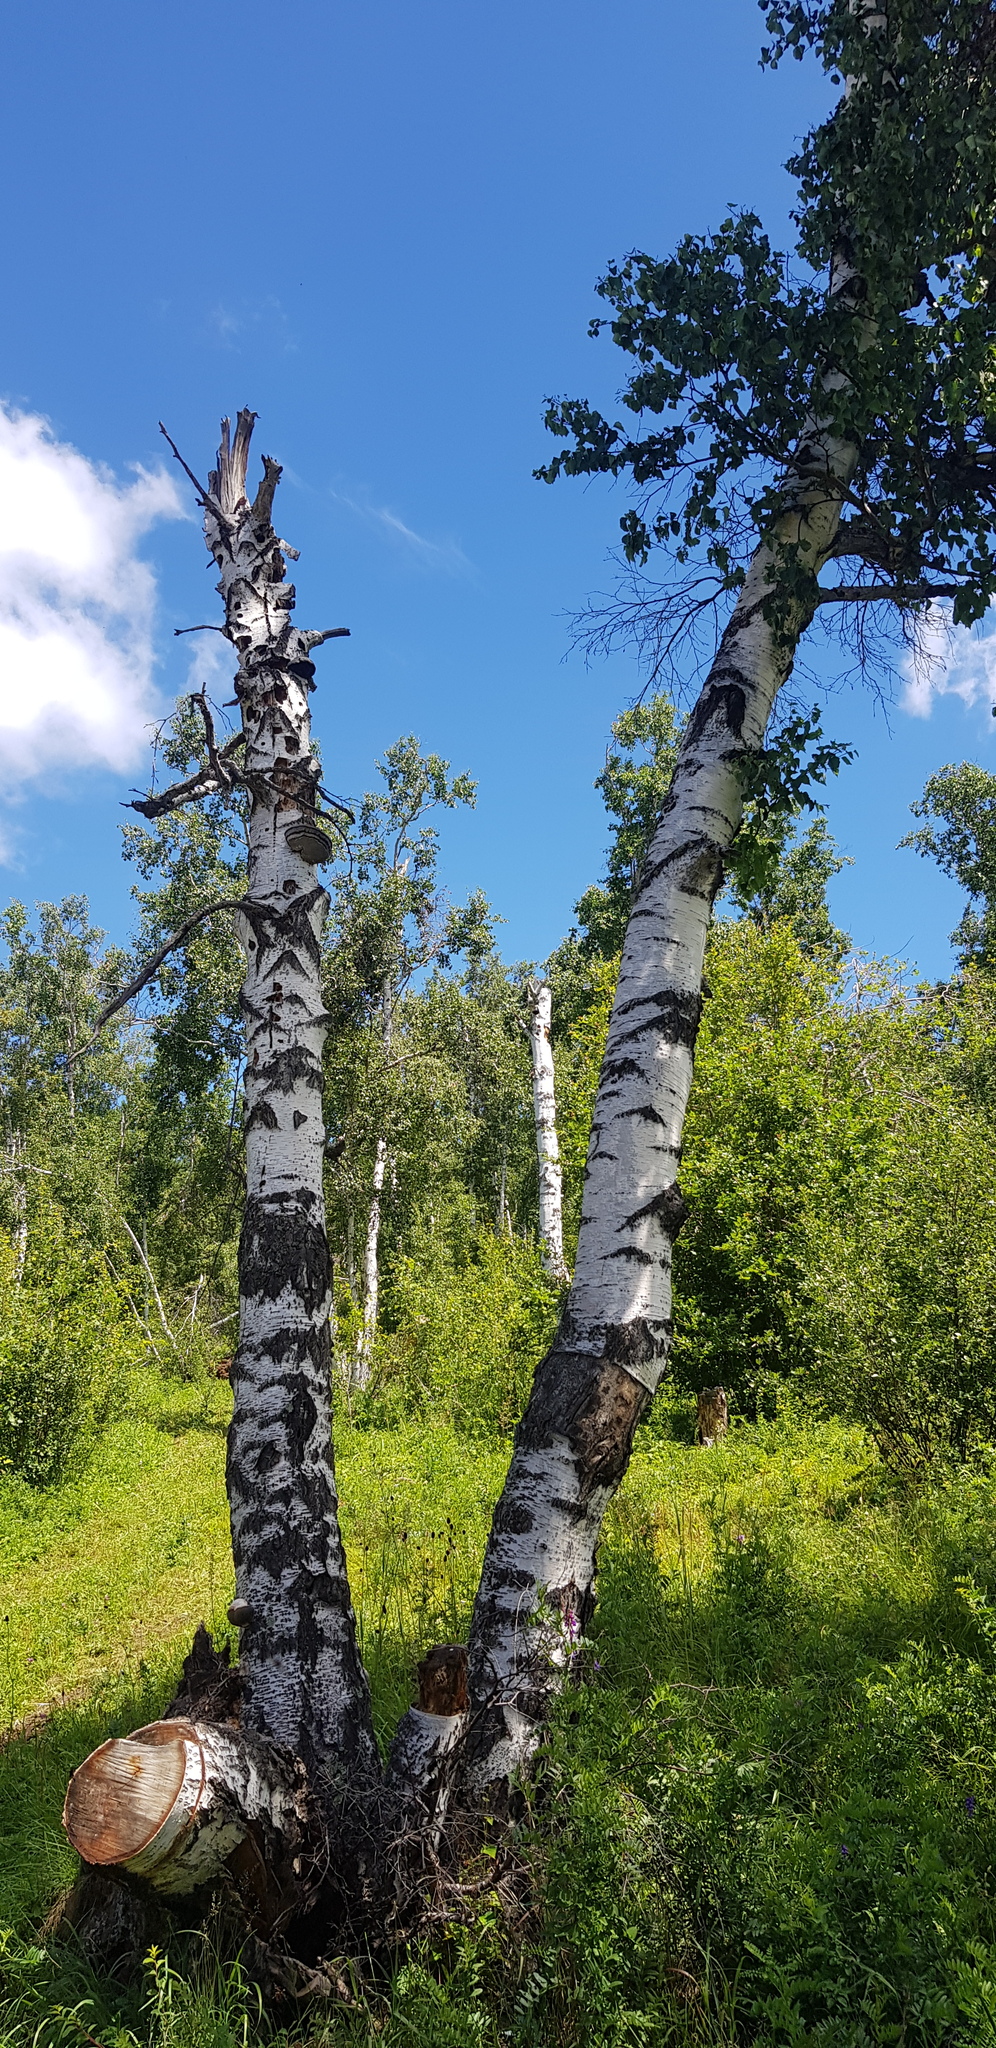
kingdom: Plantae
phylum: Tracheophyta
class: Magnoliopsida
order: Fagales
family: Betulaceae
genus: Betula
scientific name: Betula pendula
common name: Silver birch
